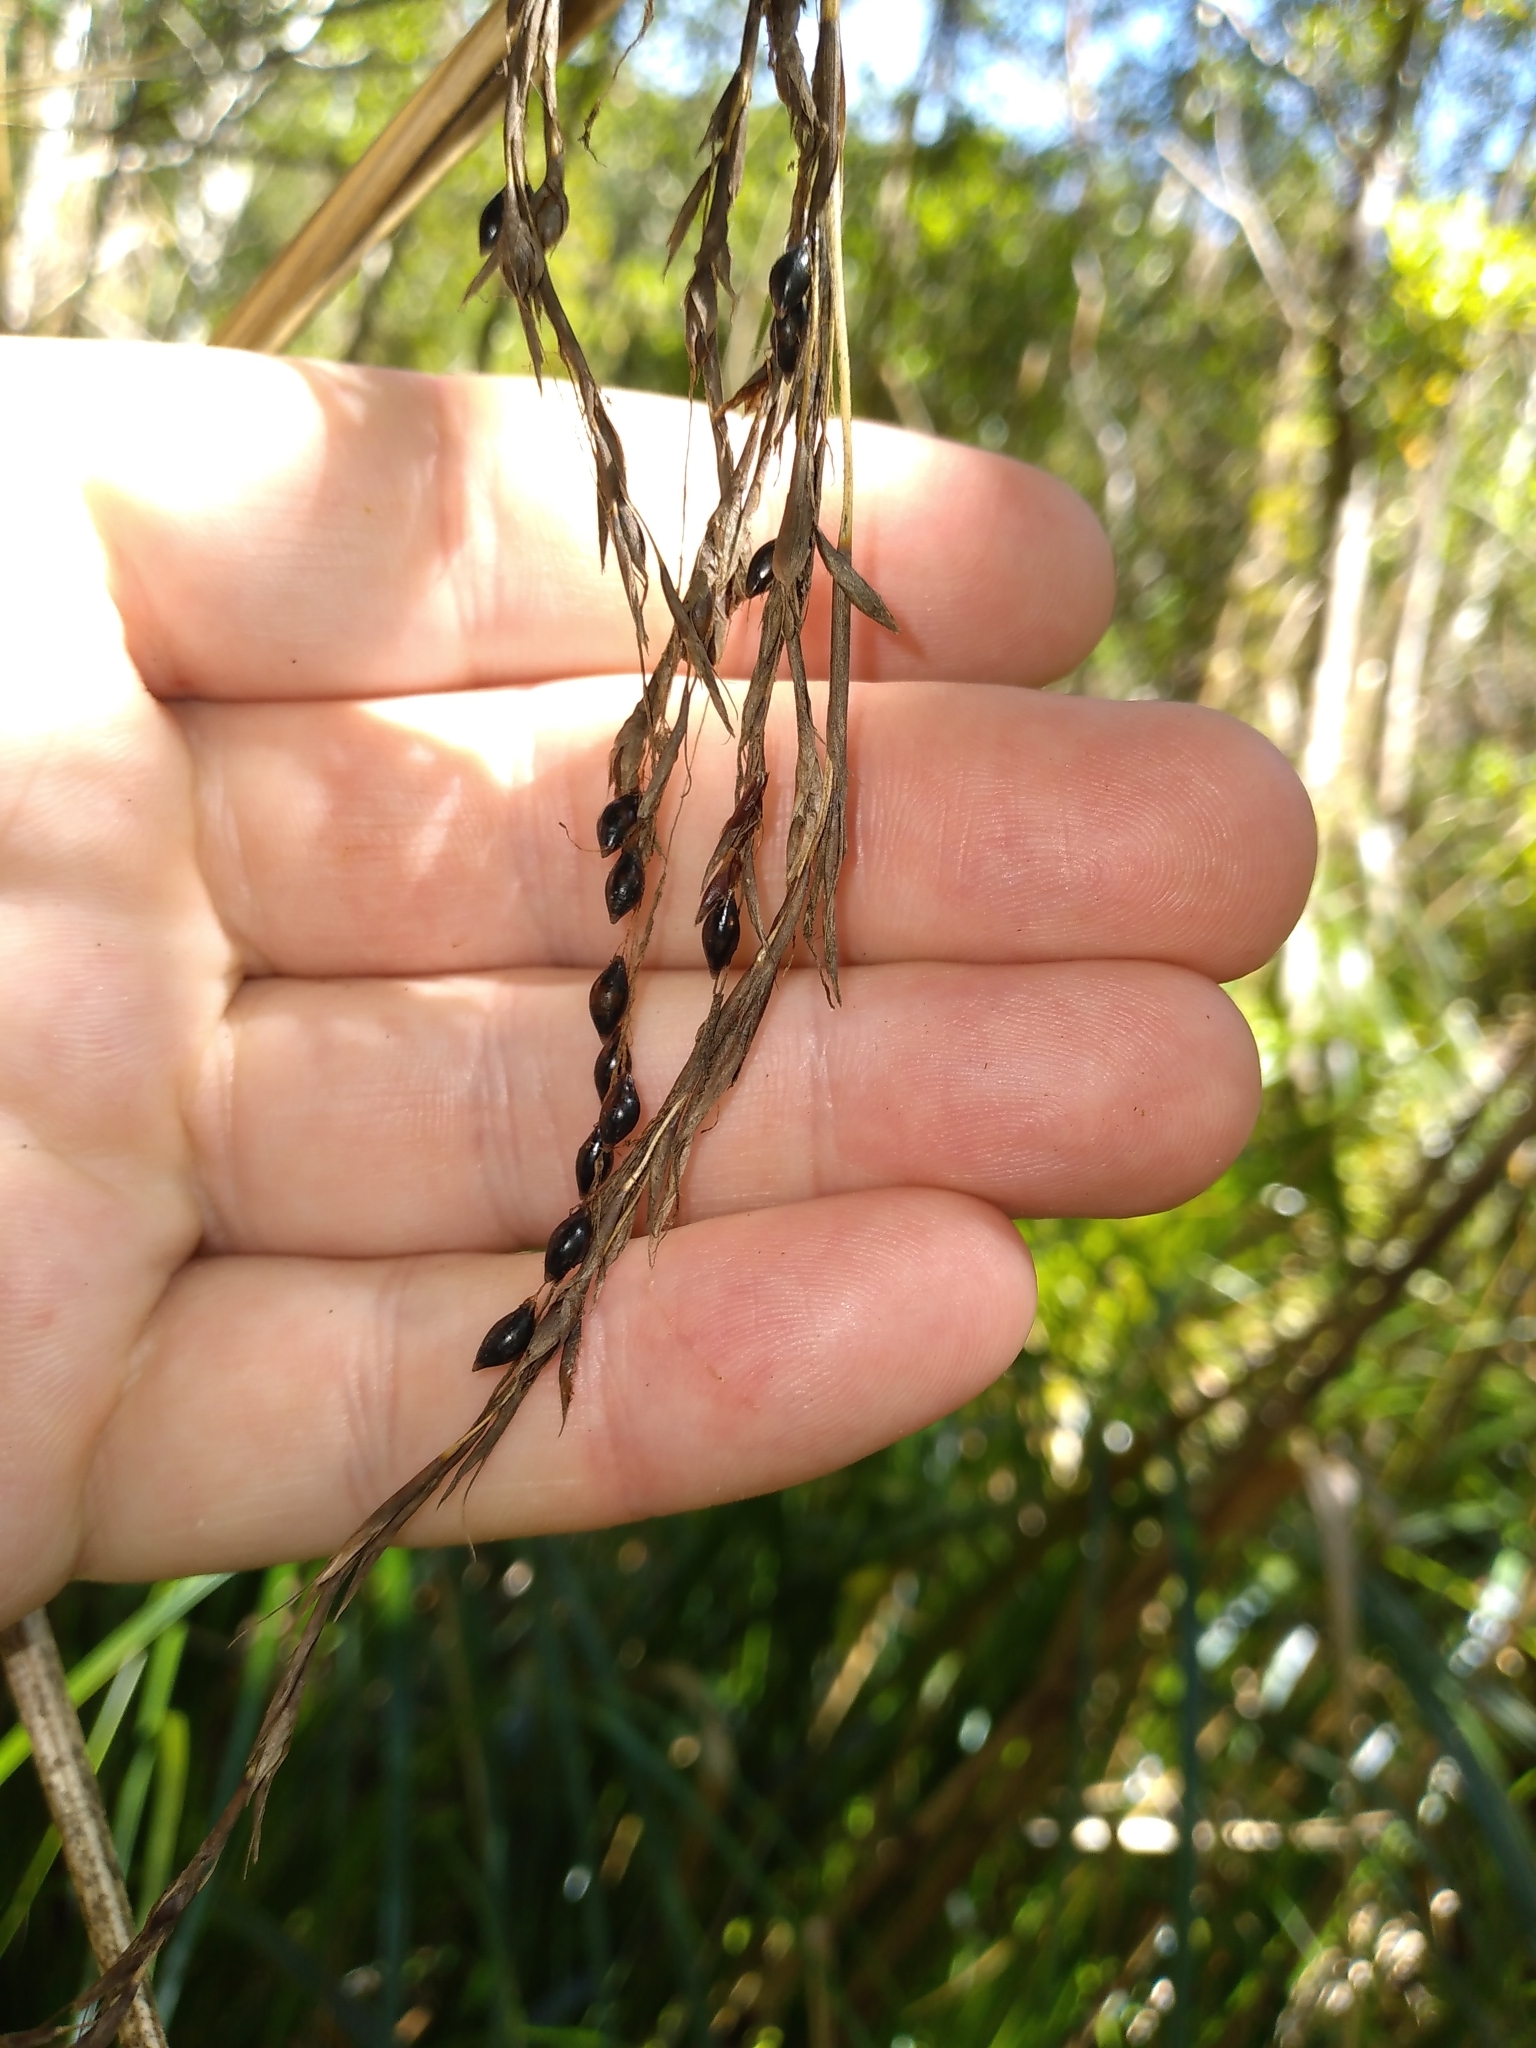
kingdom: Plantae
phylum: Tracheophyta
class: Liliopsida
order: Poales
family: Cyperaceae
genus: Gahnia
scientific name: Gahnia xanthocarpa
